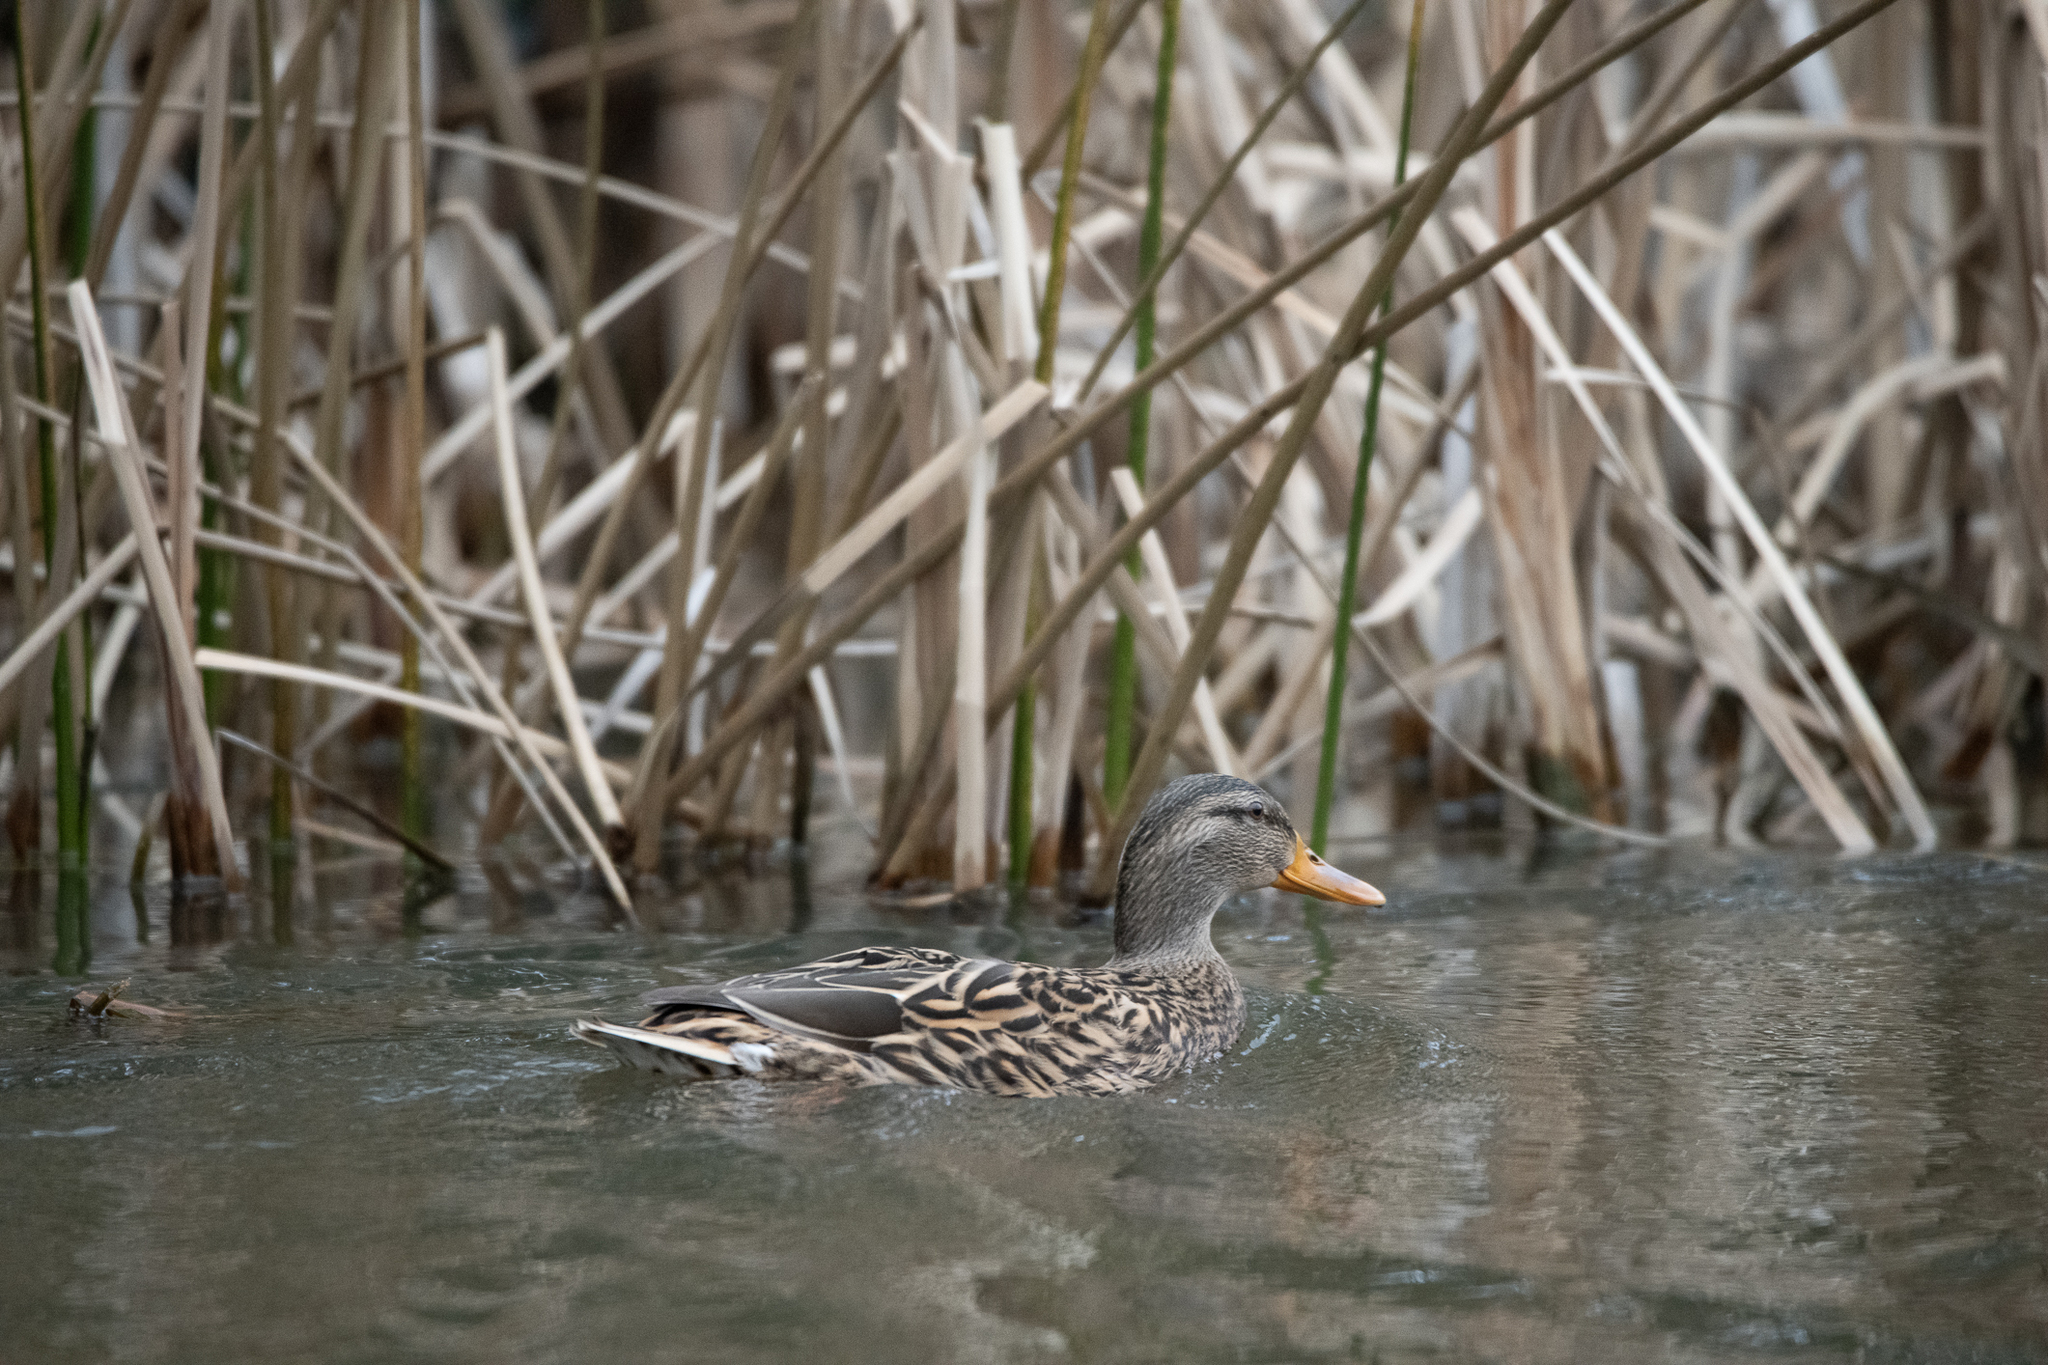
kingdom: Animalia
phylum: Chordata
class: Aves
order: Anseriformes
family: Anatidae
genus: Anas
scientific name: Anas platyrhynchos
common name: Mallard
